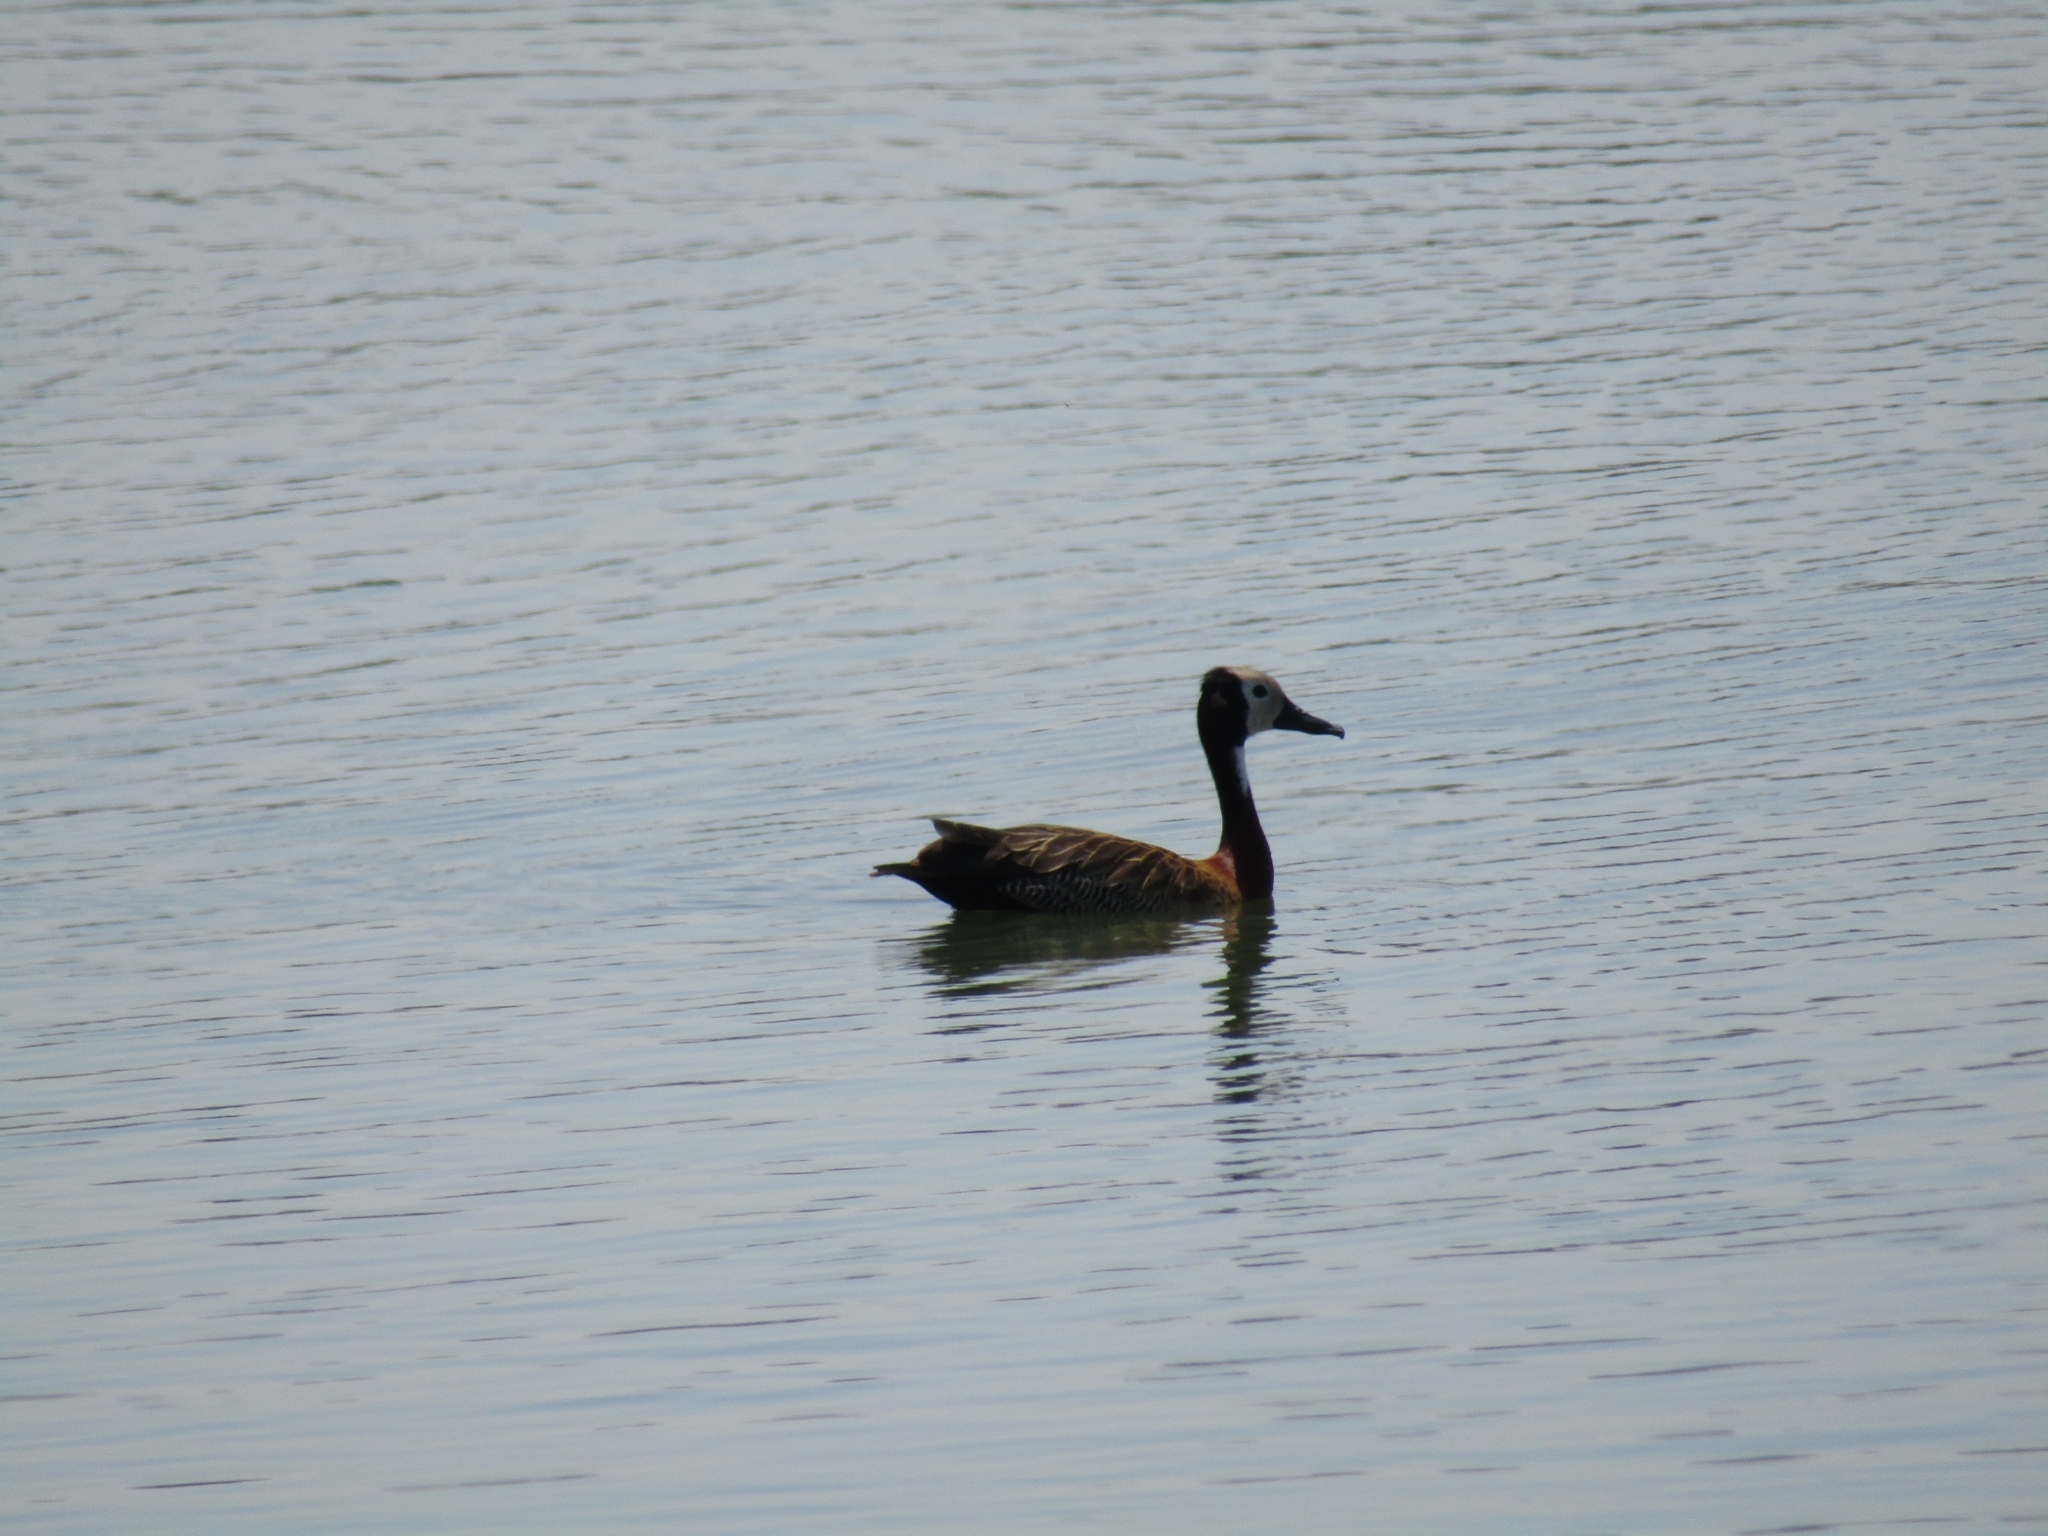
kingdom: Animalia
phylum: Chordata
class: Aves
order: Anseriformes
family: Anatidae
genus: Dendrocygna
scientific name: Dendrocygna viduata
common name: White-faced whistling duck
